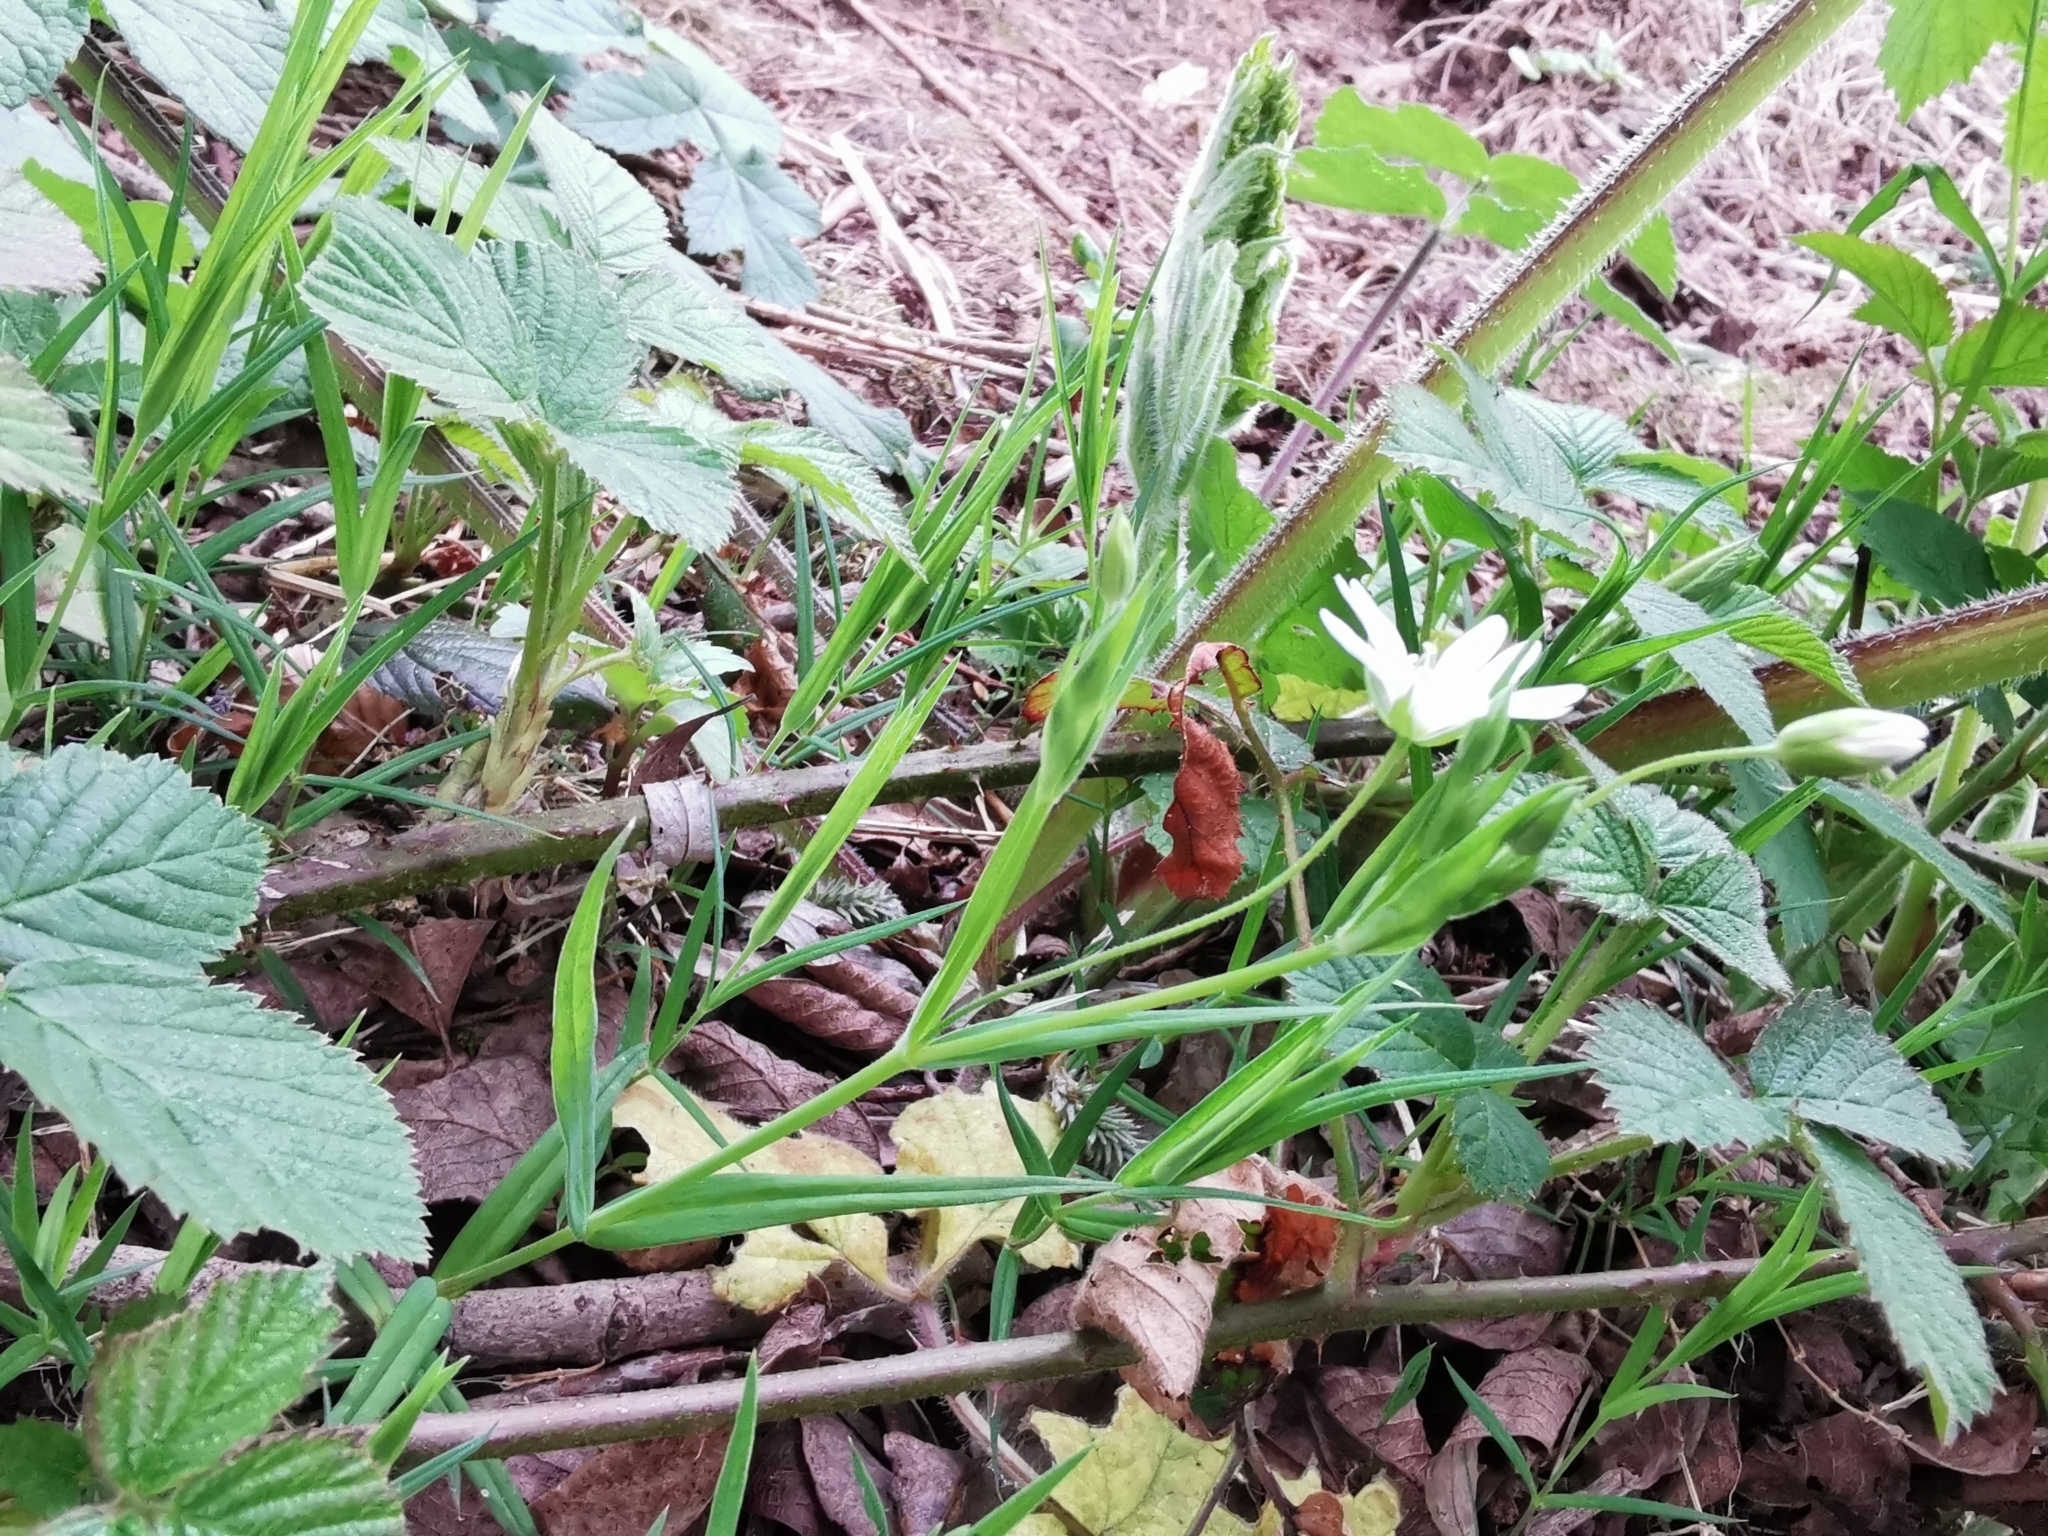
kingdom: Plantae
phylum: Tracheophyta
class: Magnoliopsida
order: Caryophyllales
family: Caryophyllaceae
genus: Rabelera
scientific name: Rabelera holostea
